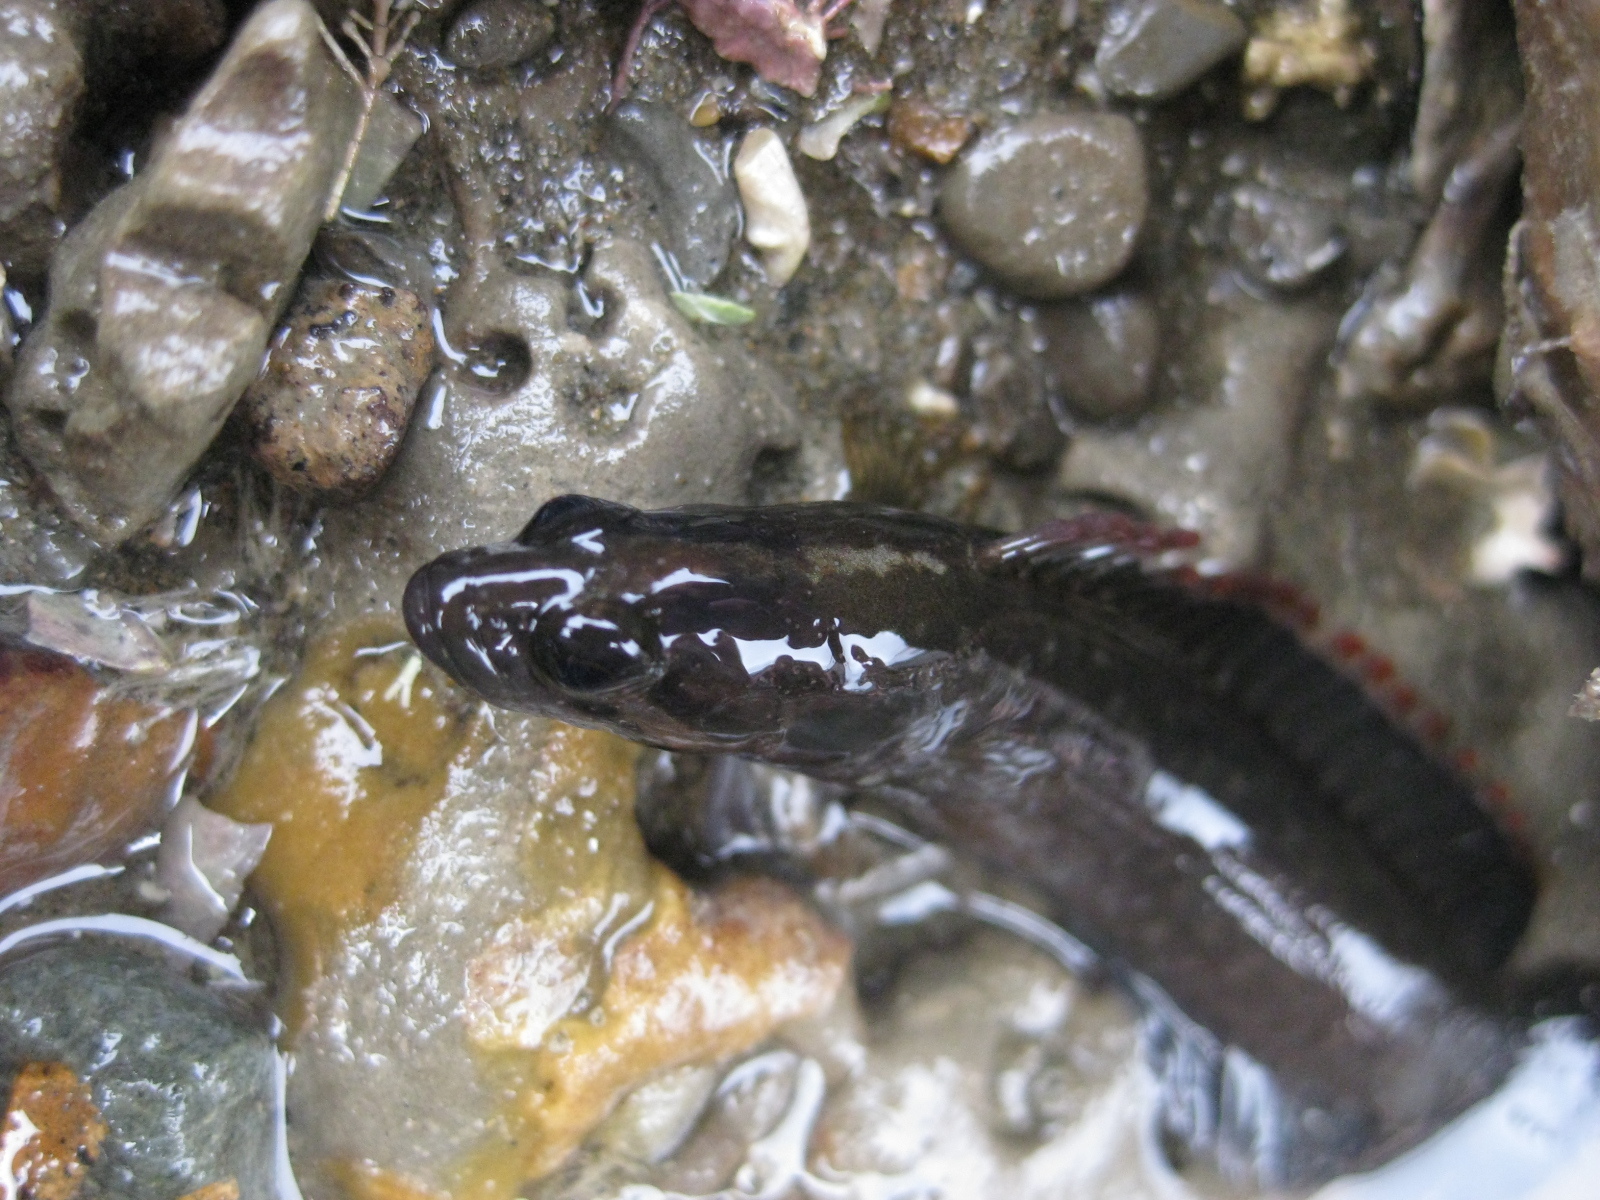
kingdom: Animalia
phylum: Chordata
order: Perciformes
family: Plesiopidae
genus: Acanthoclinus
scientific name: Acanthoclinus fuscus
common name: Olive rockfish
